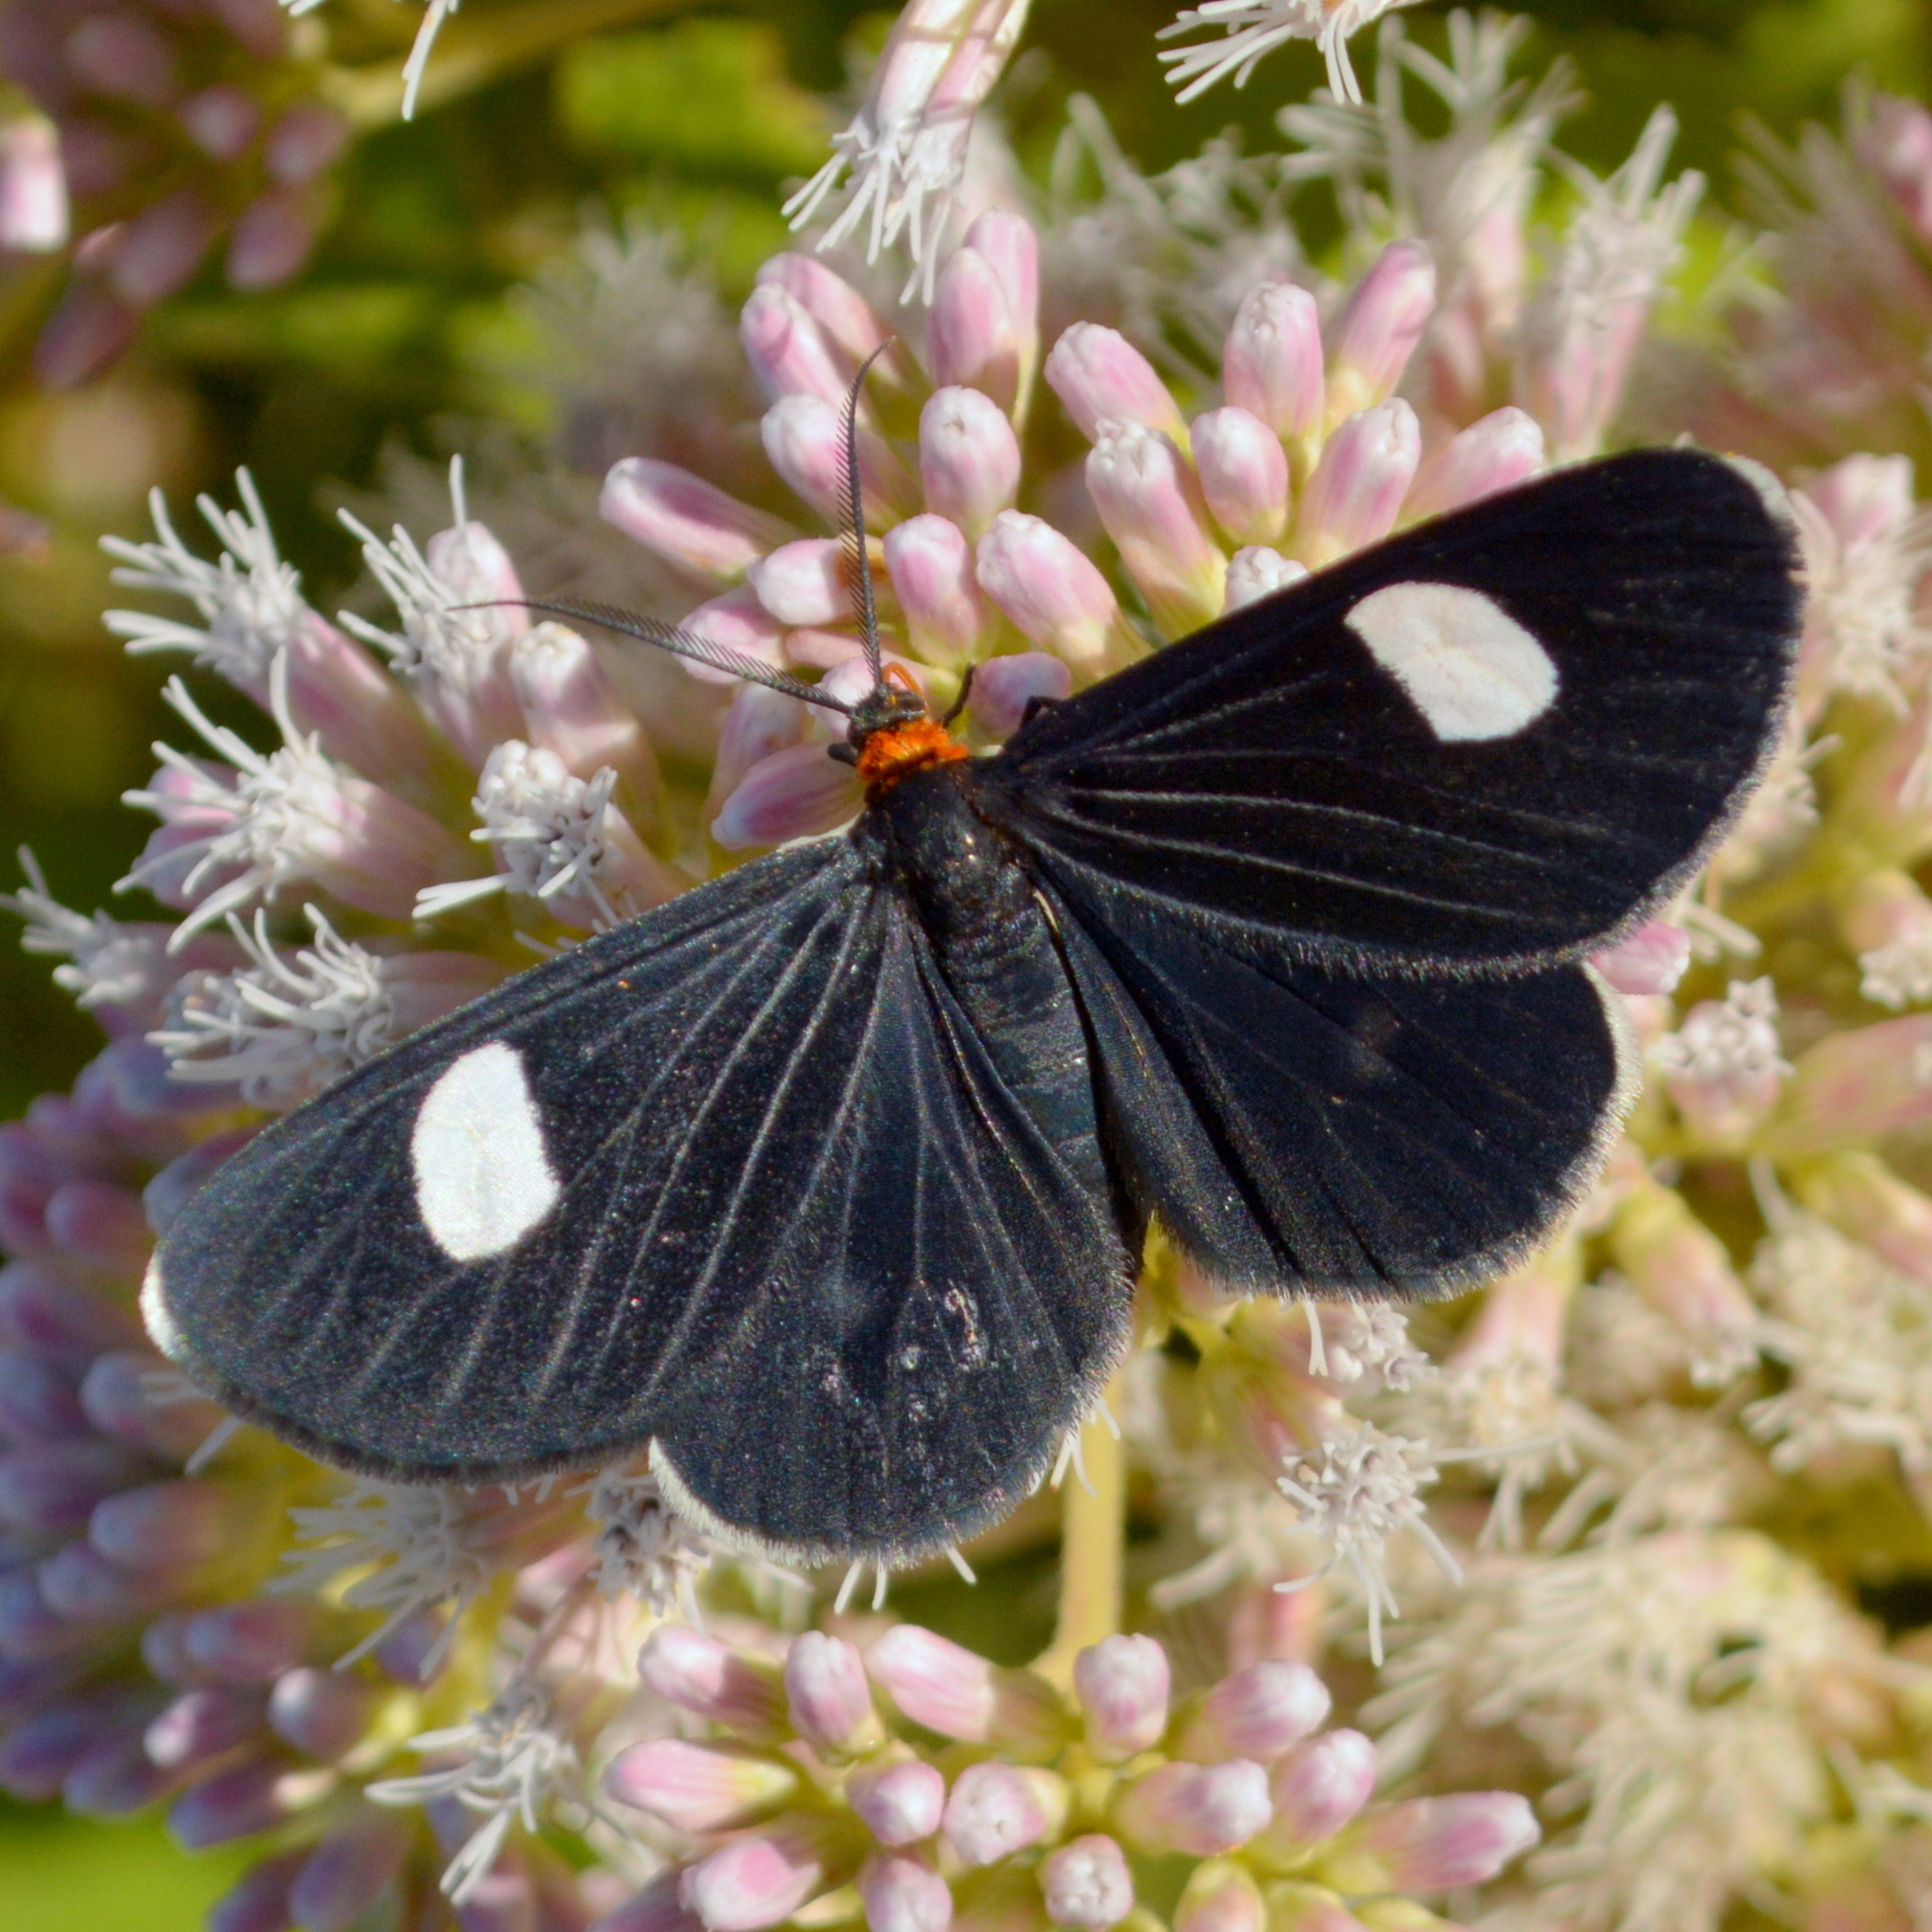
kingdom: Animalia
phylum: Arthropoda
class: Insecta
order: Lepidoptera
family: Geometridae
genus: Melanchroia
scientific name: Melanchroia aterea
